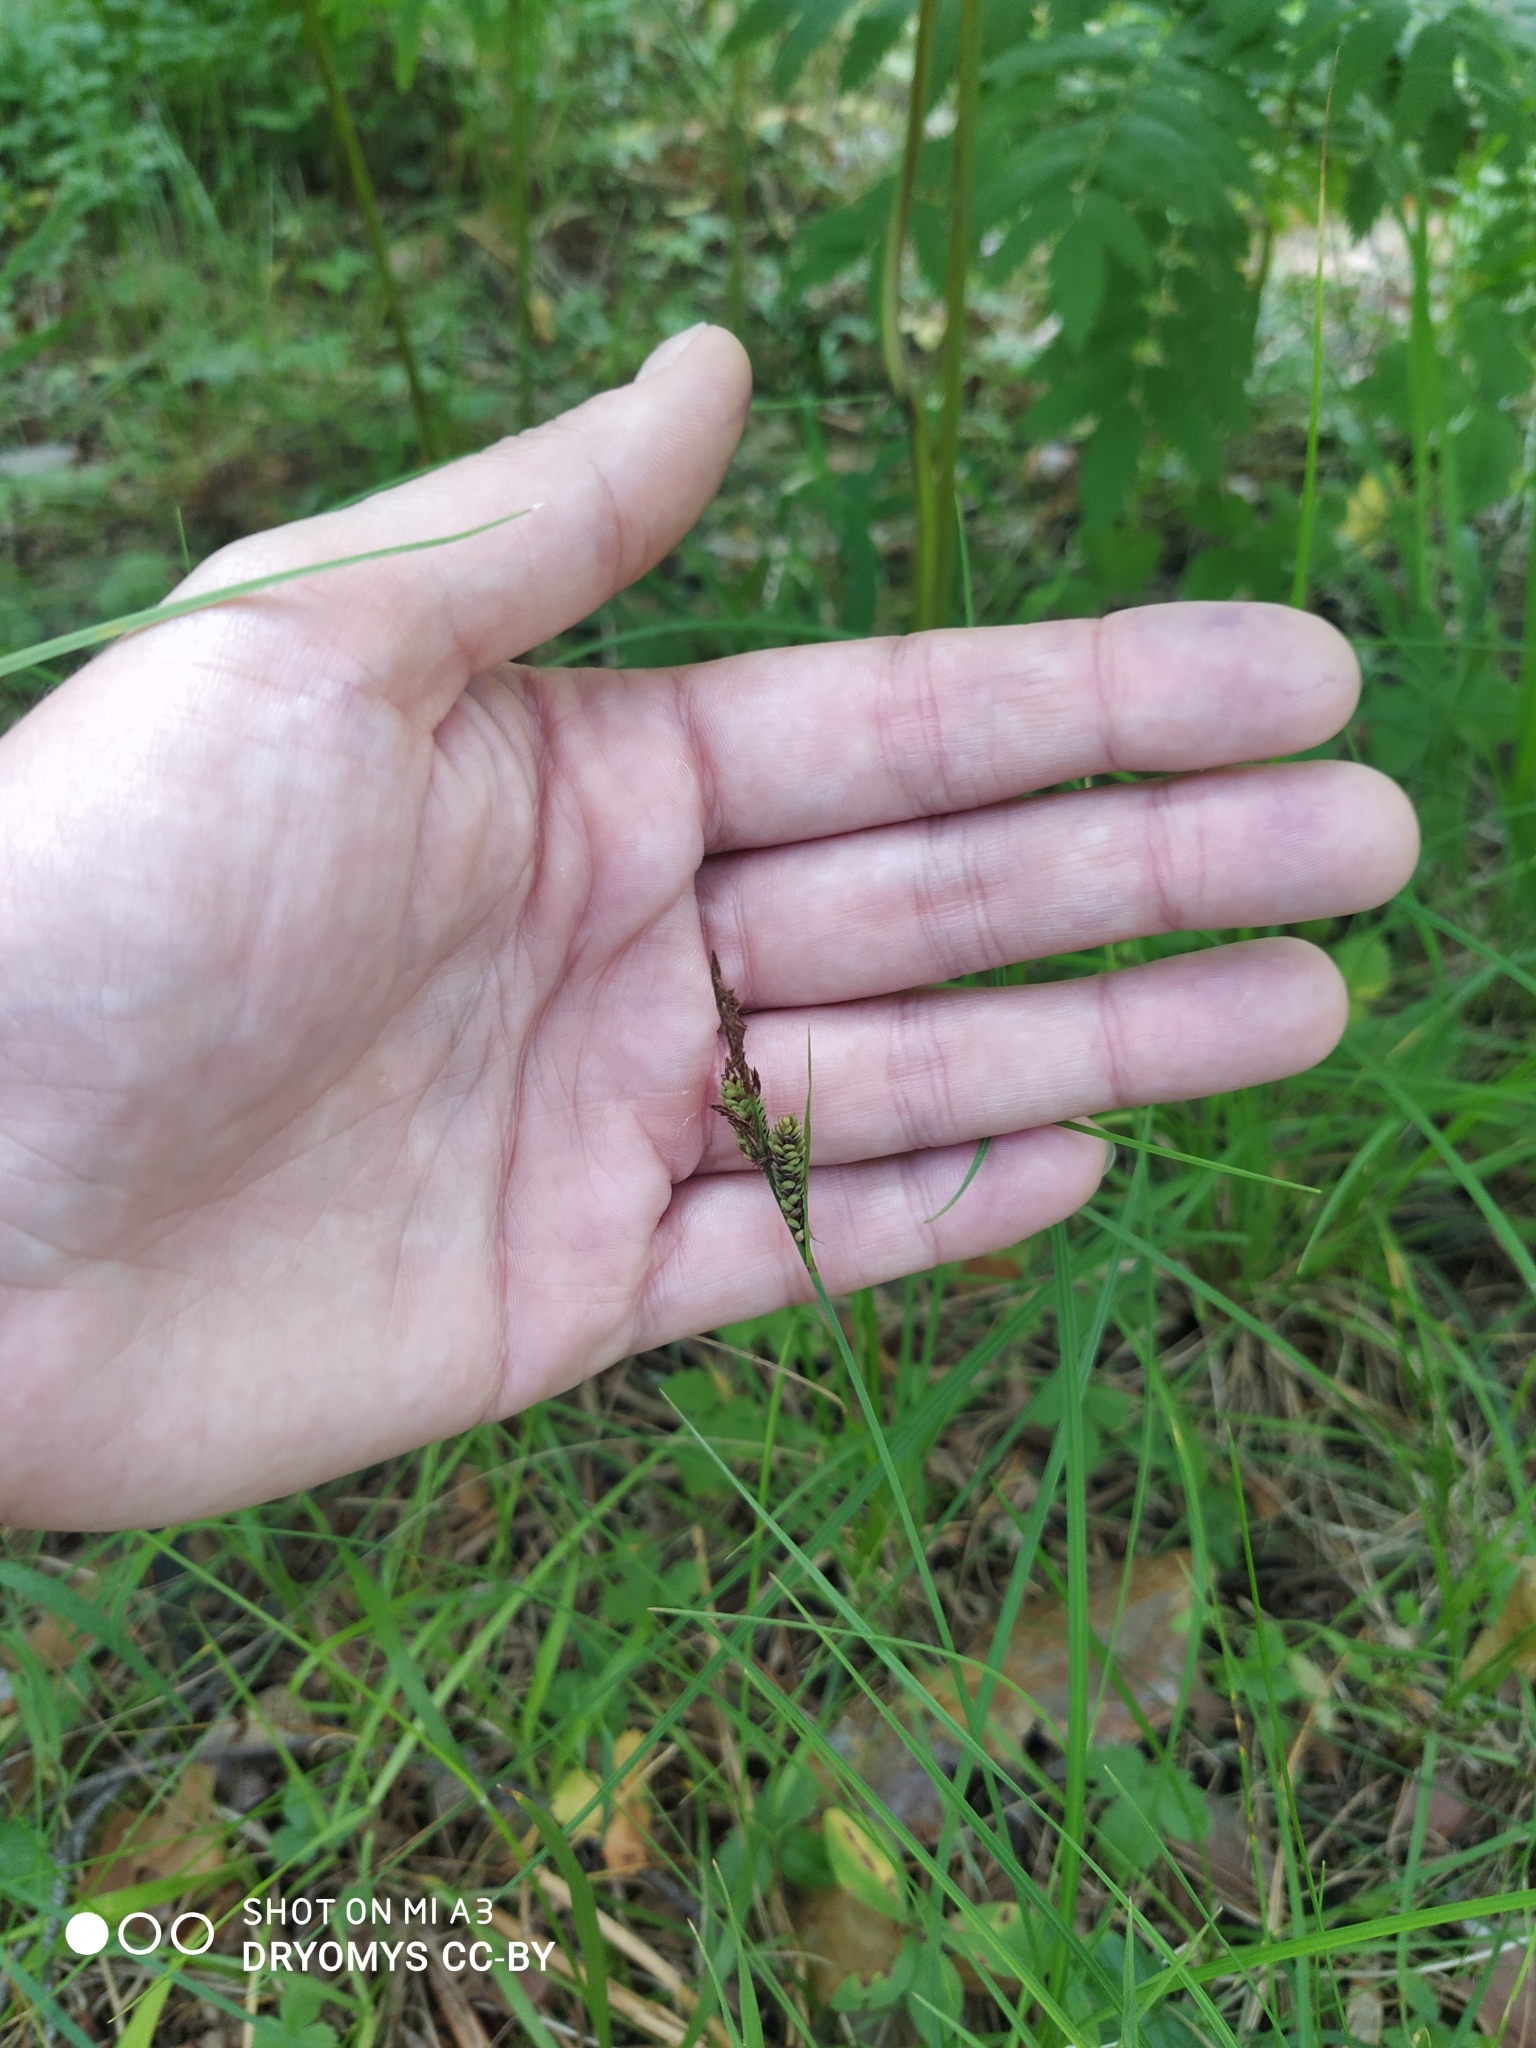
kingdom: Plantae
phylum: Tracheophyta
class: Liliopsida
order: Poales
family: Cyperaceae
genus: Carex
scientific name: Carex nigra
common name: Common sedge
